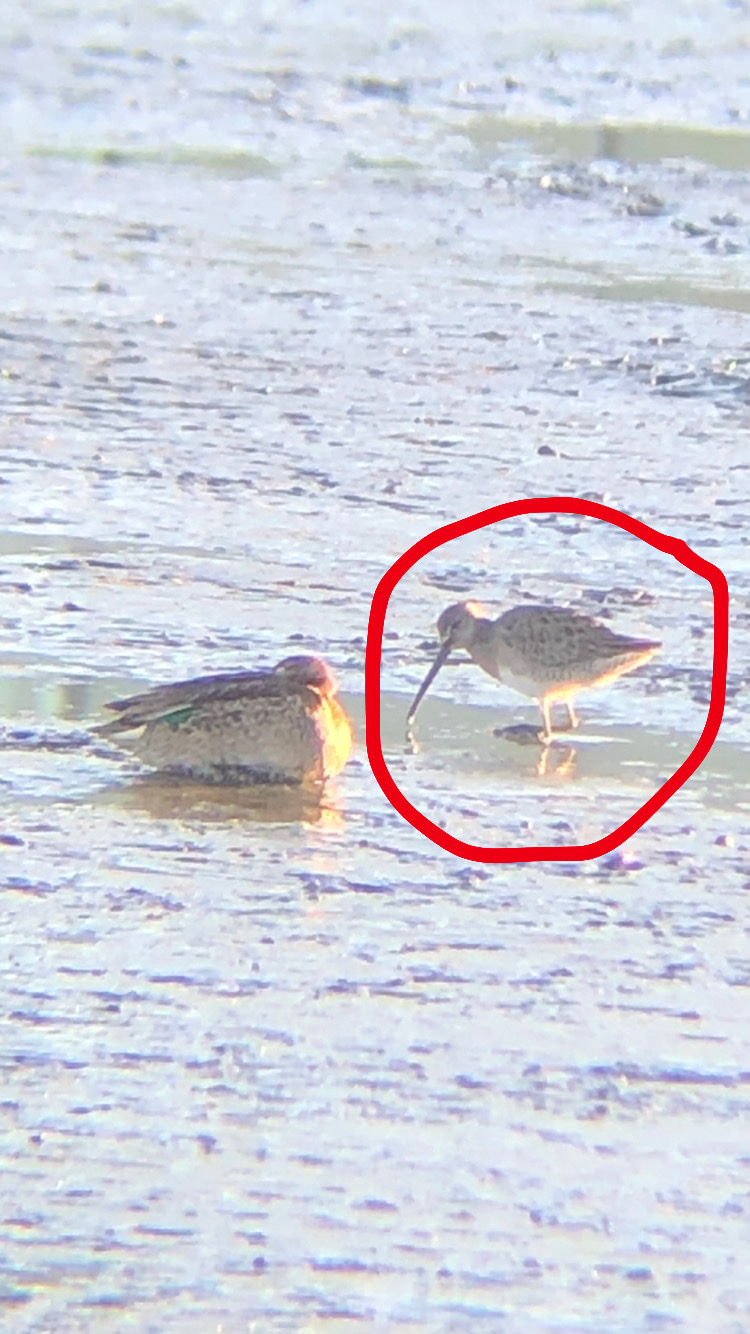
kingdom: Animalia
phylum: Chordata
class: Aves
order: Charadriiformes
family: Scolopacidae
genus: Limnodromus
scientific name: Limnodromus scolopaceus
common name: Long-billed dowitcher
